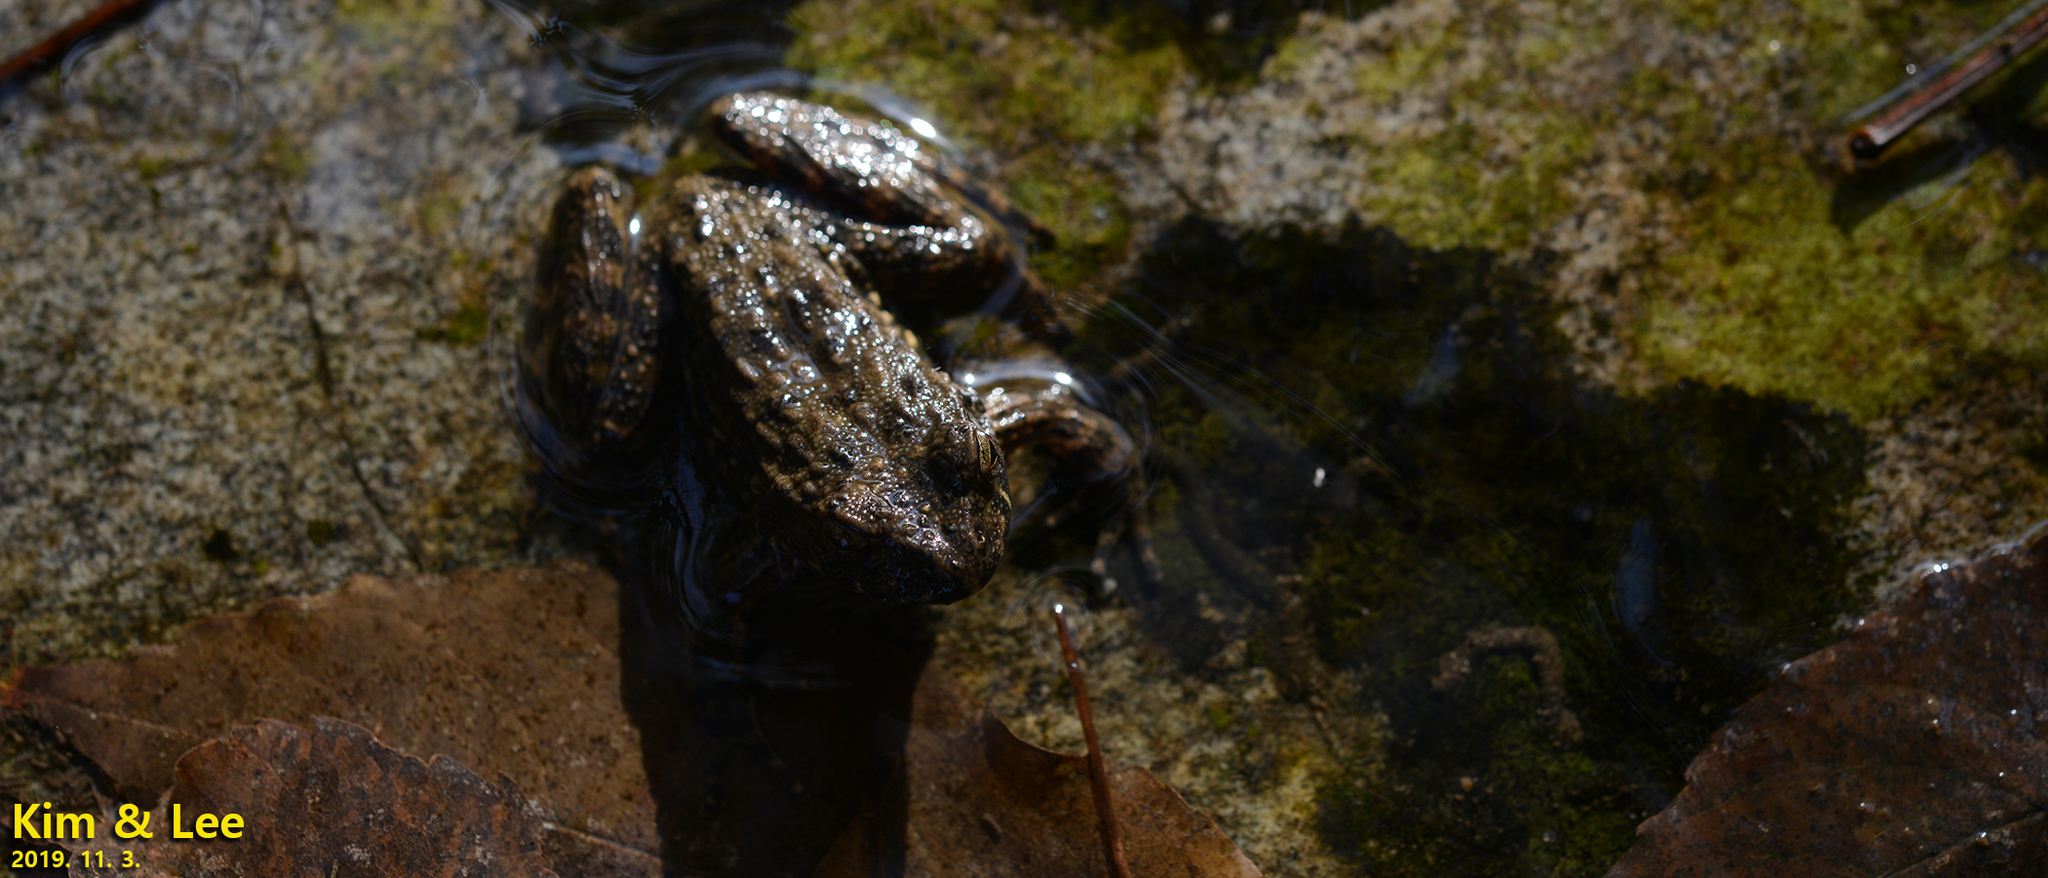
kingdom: Animalia
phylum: Chordata
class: Amphibia
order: Anura
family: Ranidae
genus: Glandirana
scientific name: Glandirana emeljanovi
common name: Northeast china rough-skinned frog
